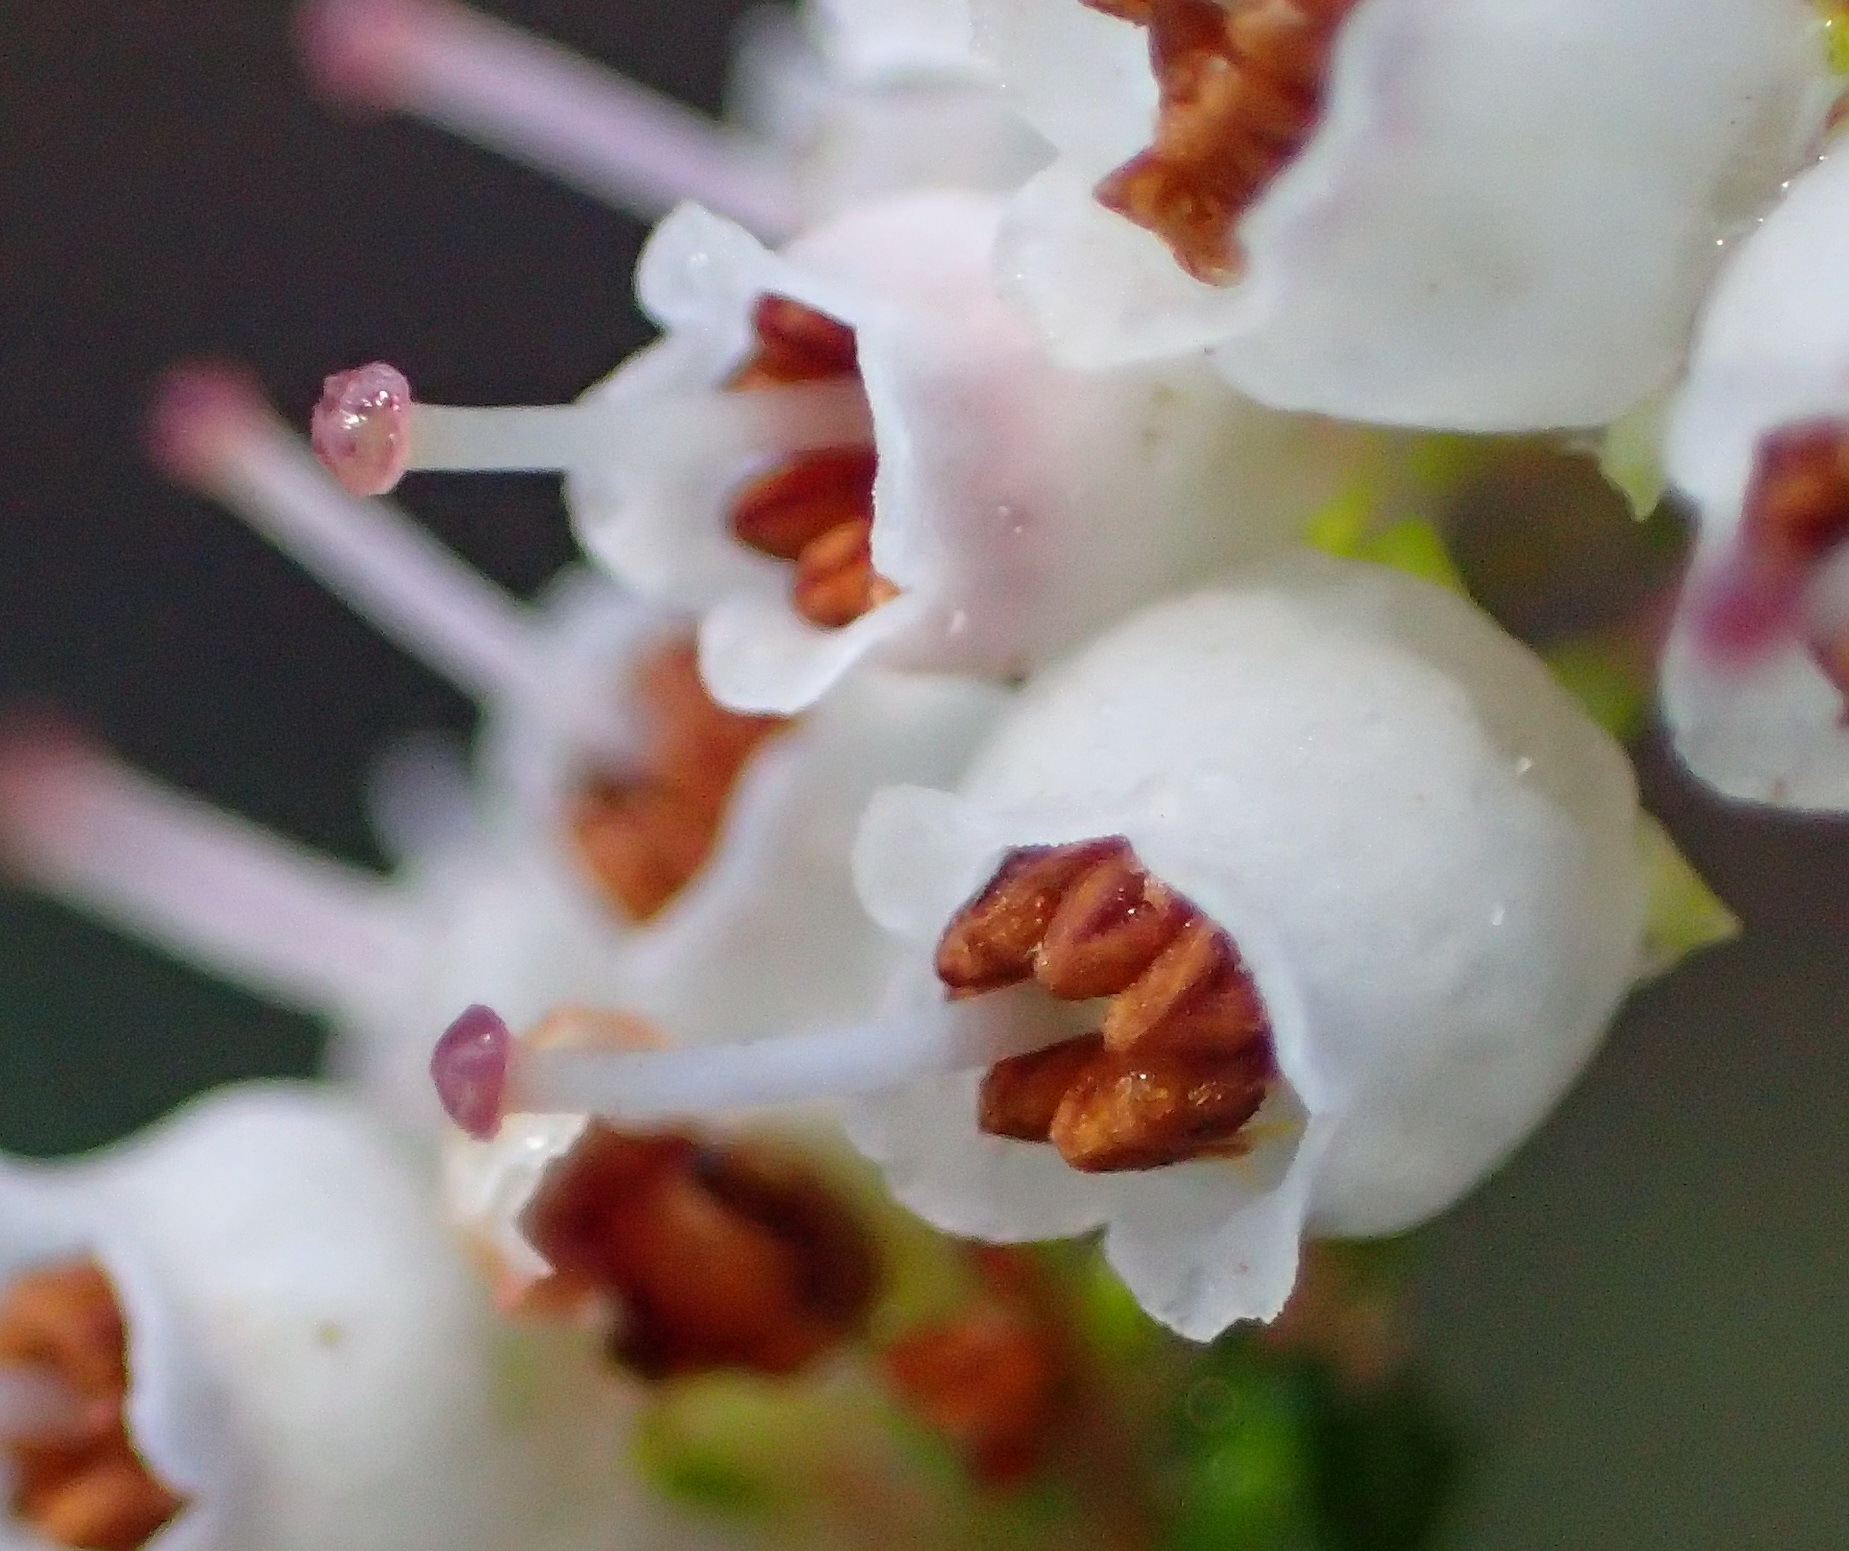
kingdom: Plantae
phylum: Tracheophyta
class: Magnoliopsida
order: Ericales
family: Ericaceae
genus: Erica
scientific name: Erica scabriuscula
